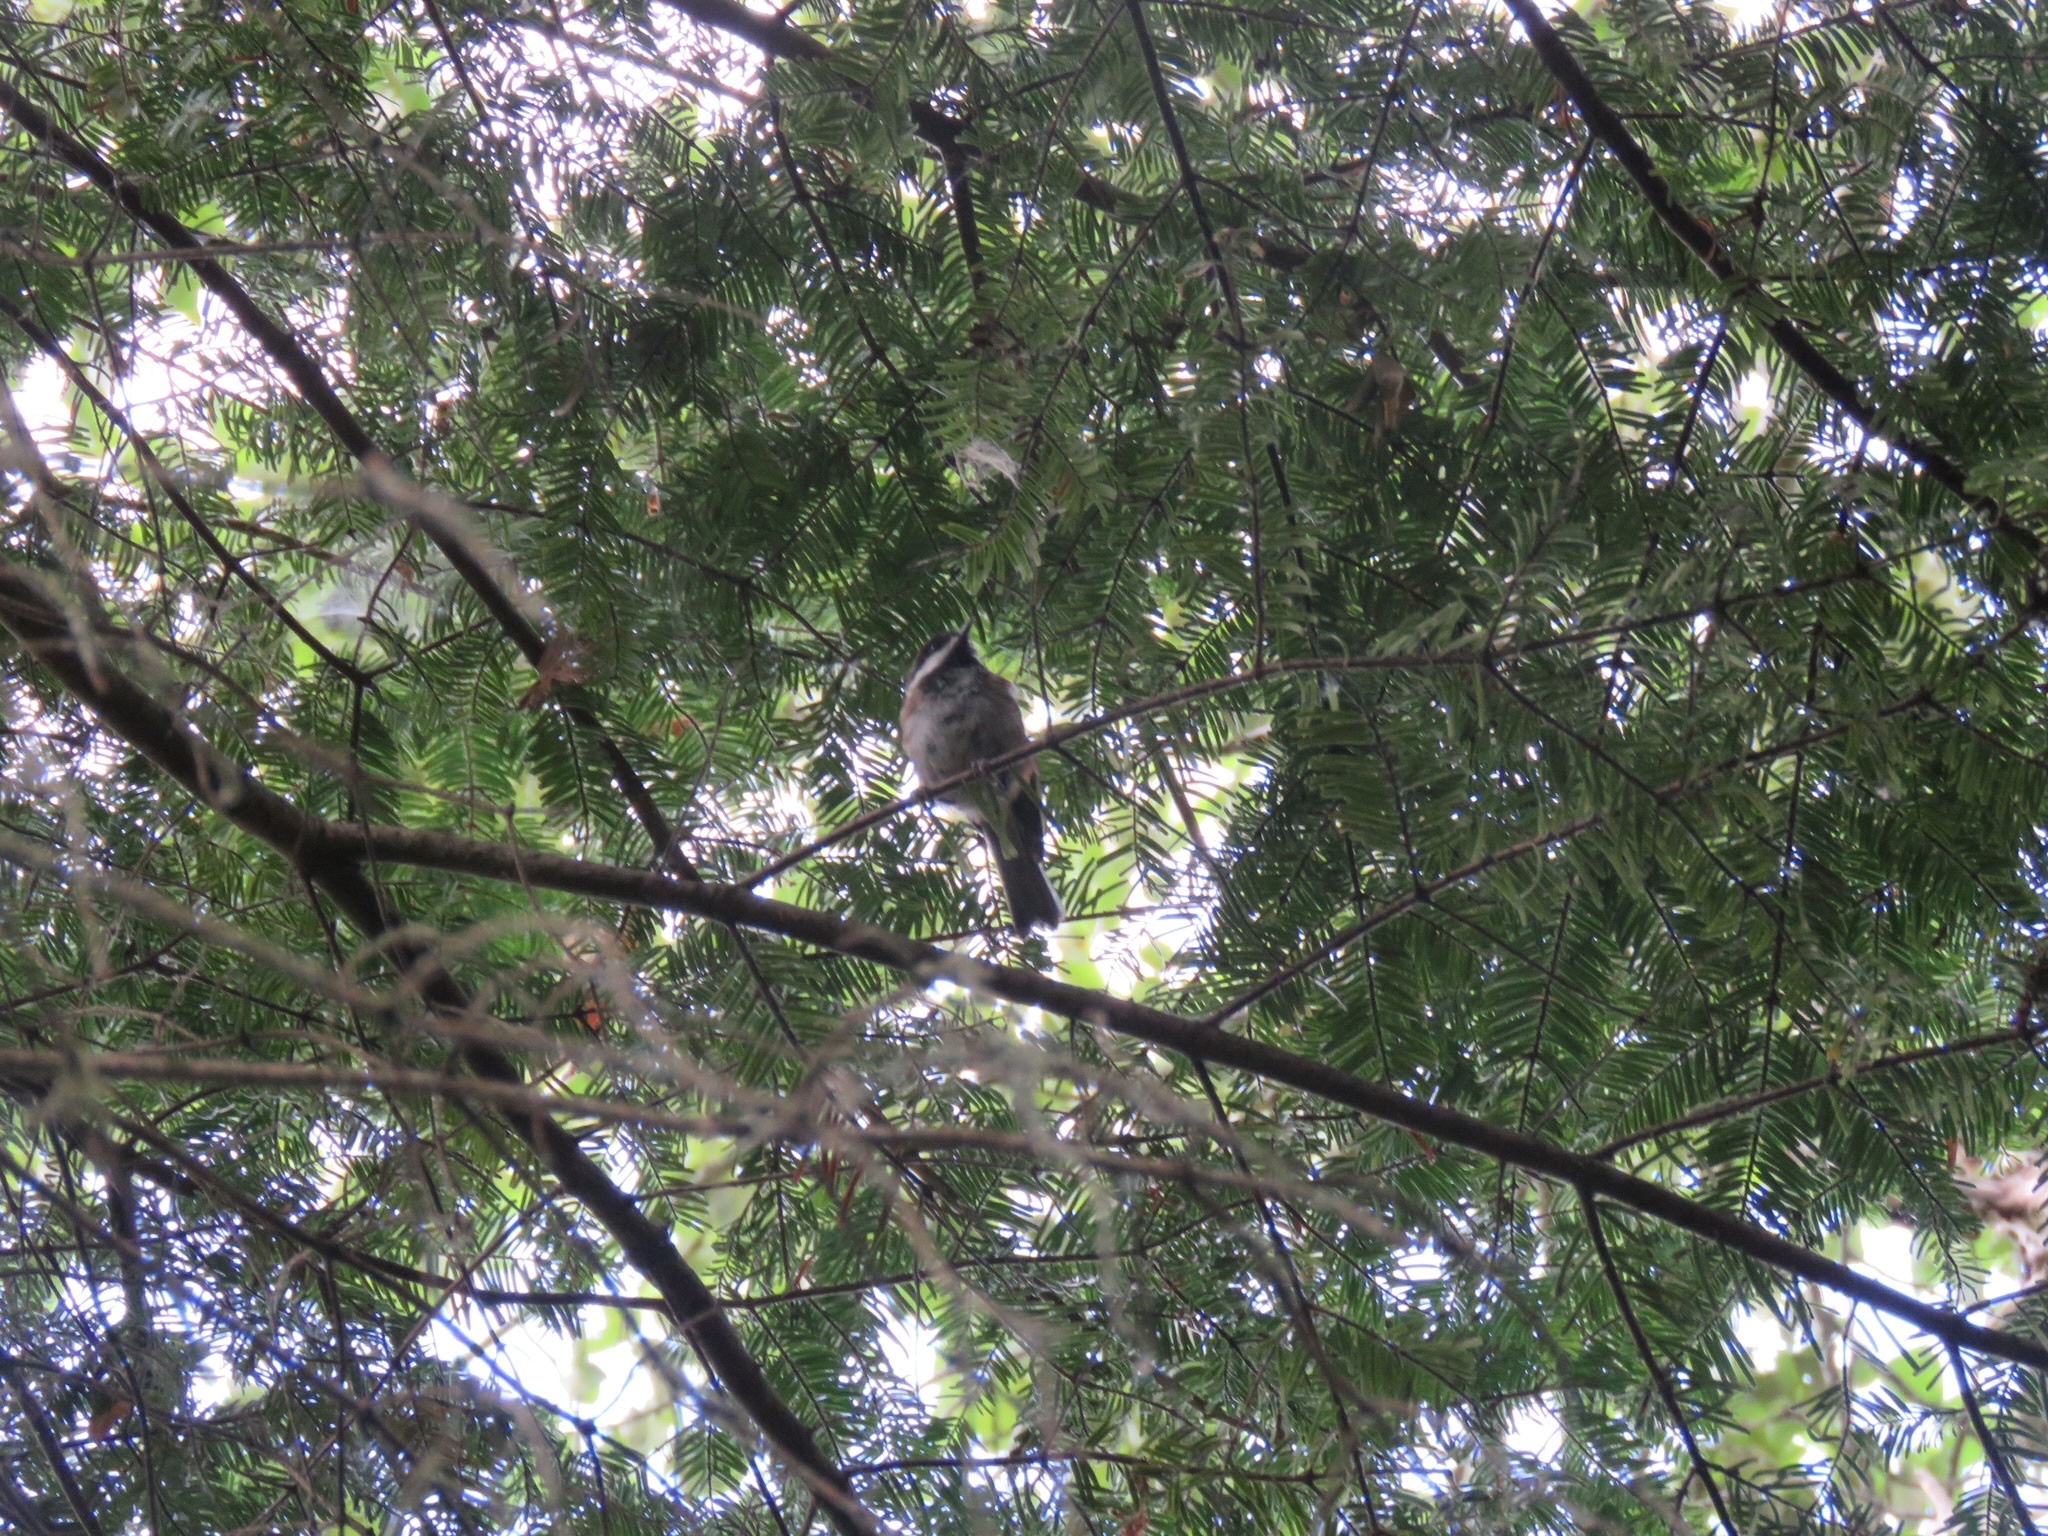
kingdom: Animalia
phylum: Chordata
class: Aves
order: Passeriformes
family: Paridae
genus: Poecile
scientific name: Poecile rufescens
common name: Chestnut-backed chickadee
